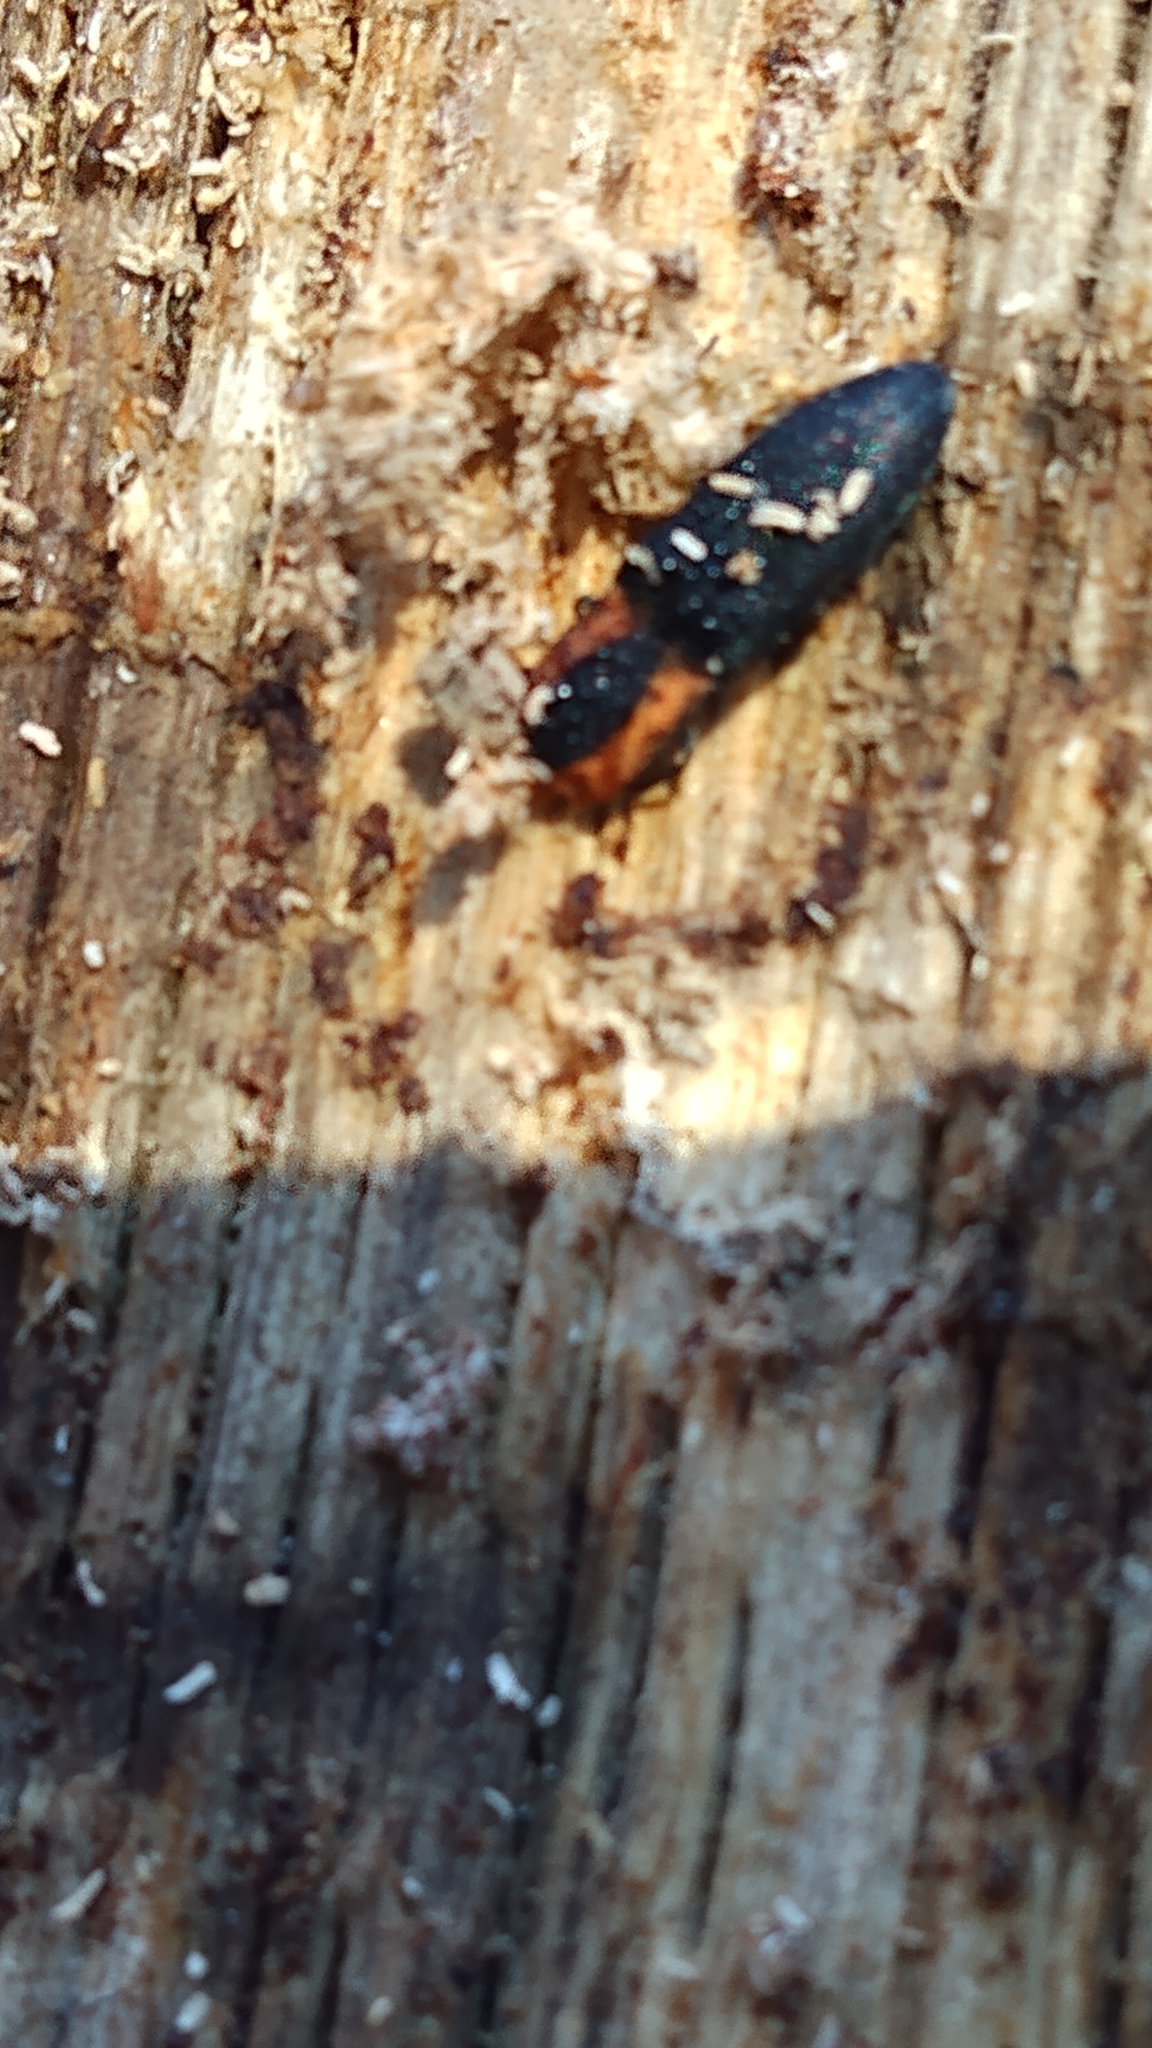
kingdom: Animalia
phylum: Arthropoda
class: Insecta
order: Coleoptera
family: Elateridae
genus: Lacon
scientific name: Lacon discoideus
